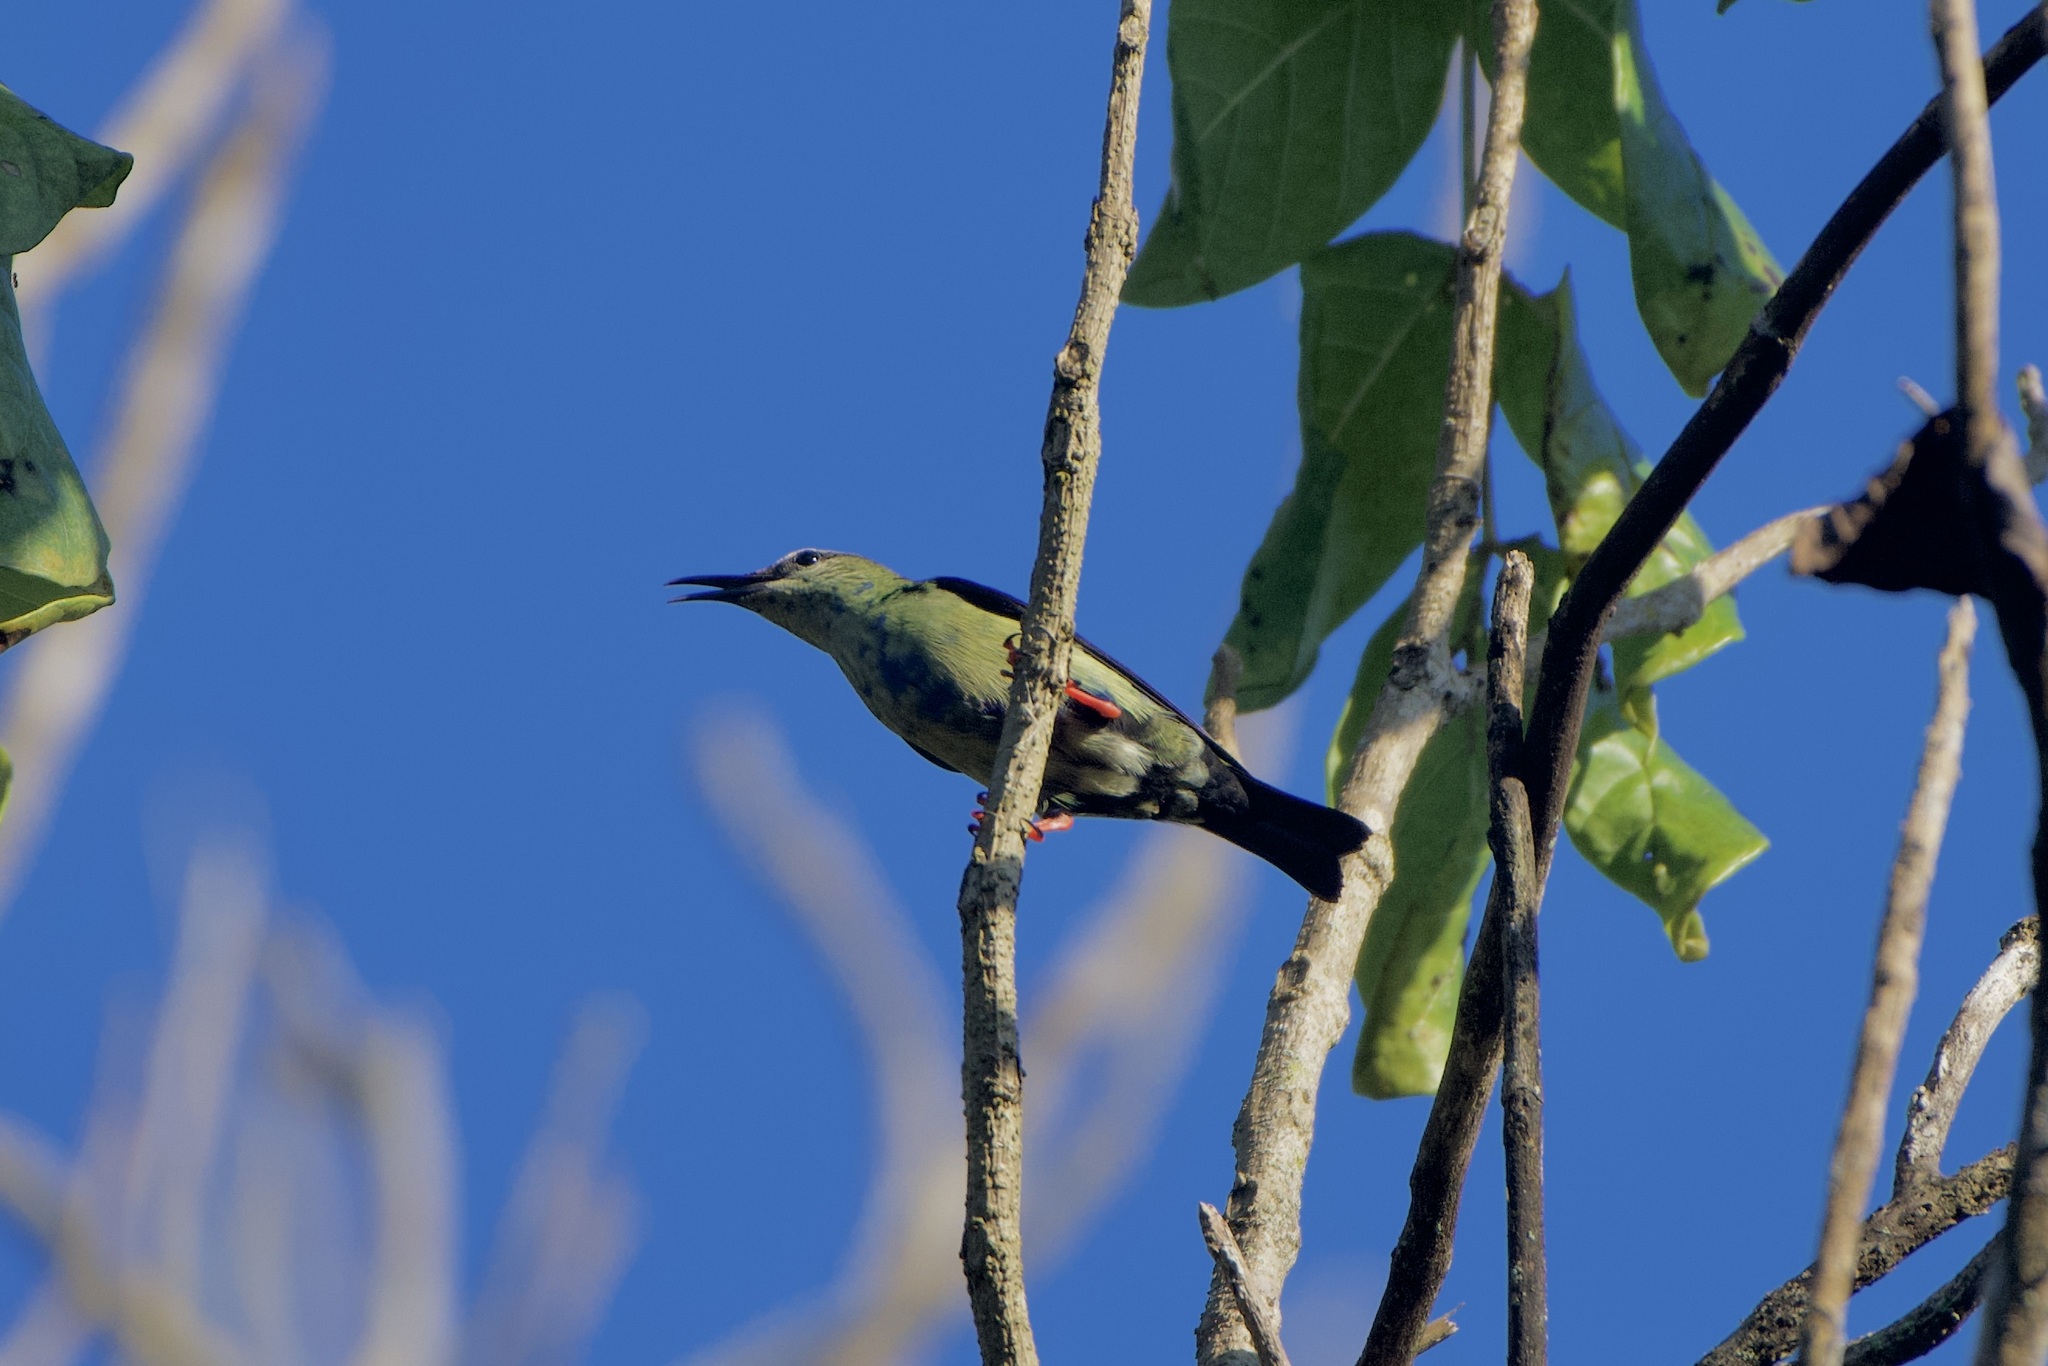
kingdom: Animalia
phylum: Chordata
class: Aves
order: Passeriformes
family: Thraupidae
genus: Cyanerpes
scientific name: Cyanerpes cyaneus
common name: Red-legged honeycreeper
